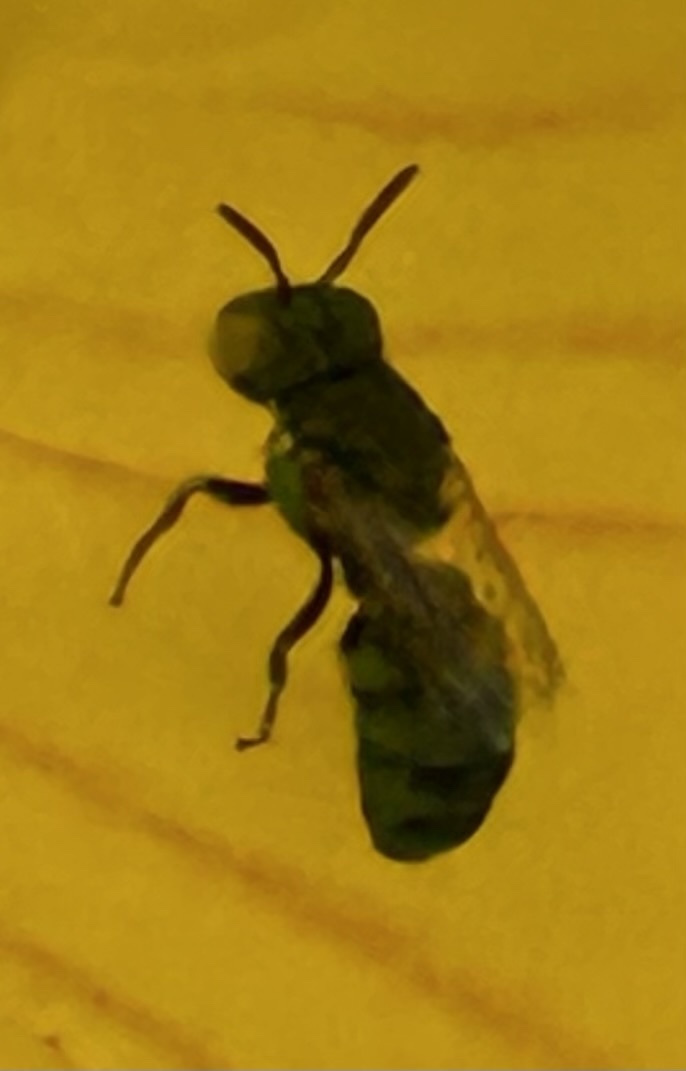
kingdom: Animalia
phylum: Arthropoda
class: Insecta
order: Hymenoptera
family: Apidae
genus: Ceratina
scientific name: Ceratina smaragdula
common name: Small carpenter bee
